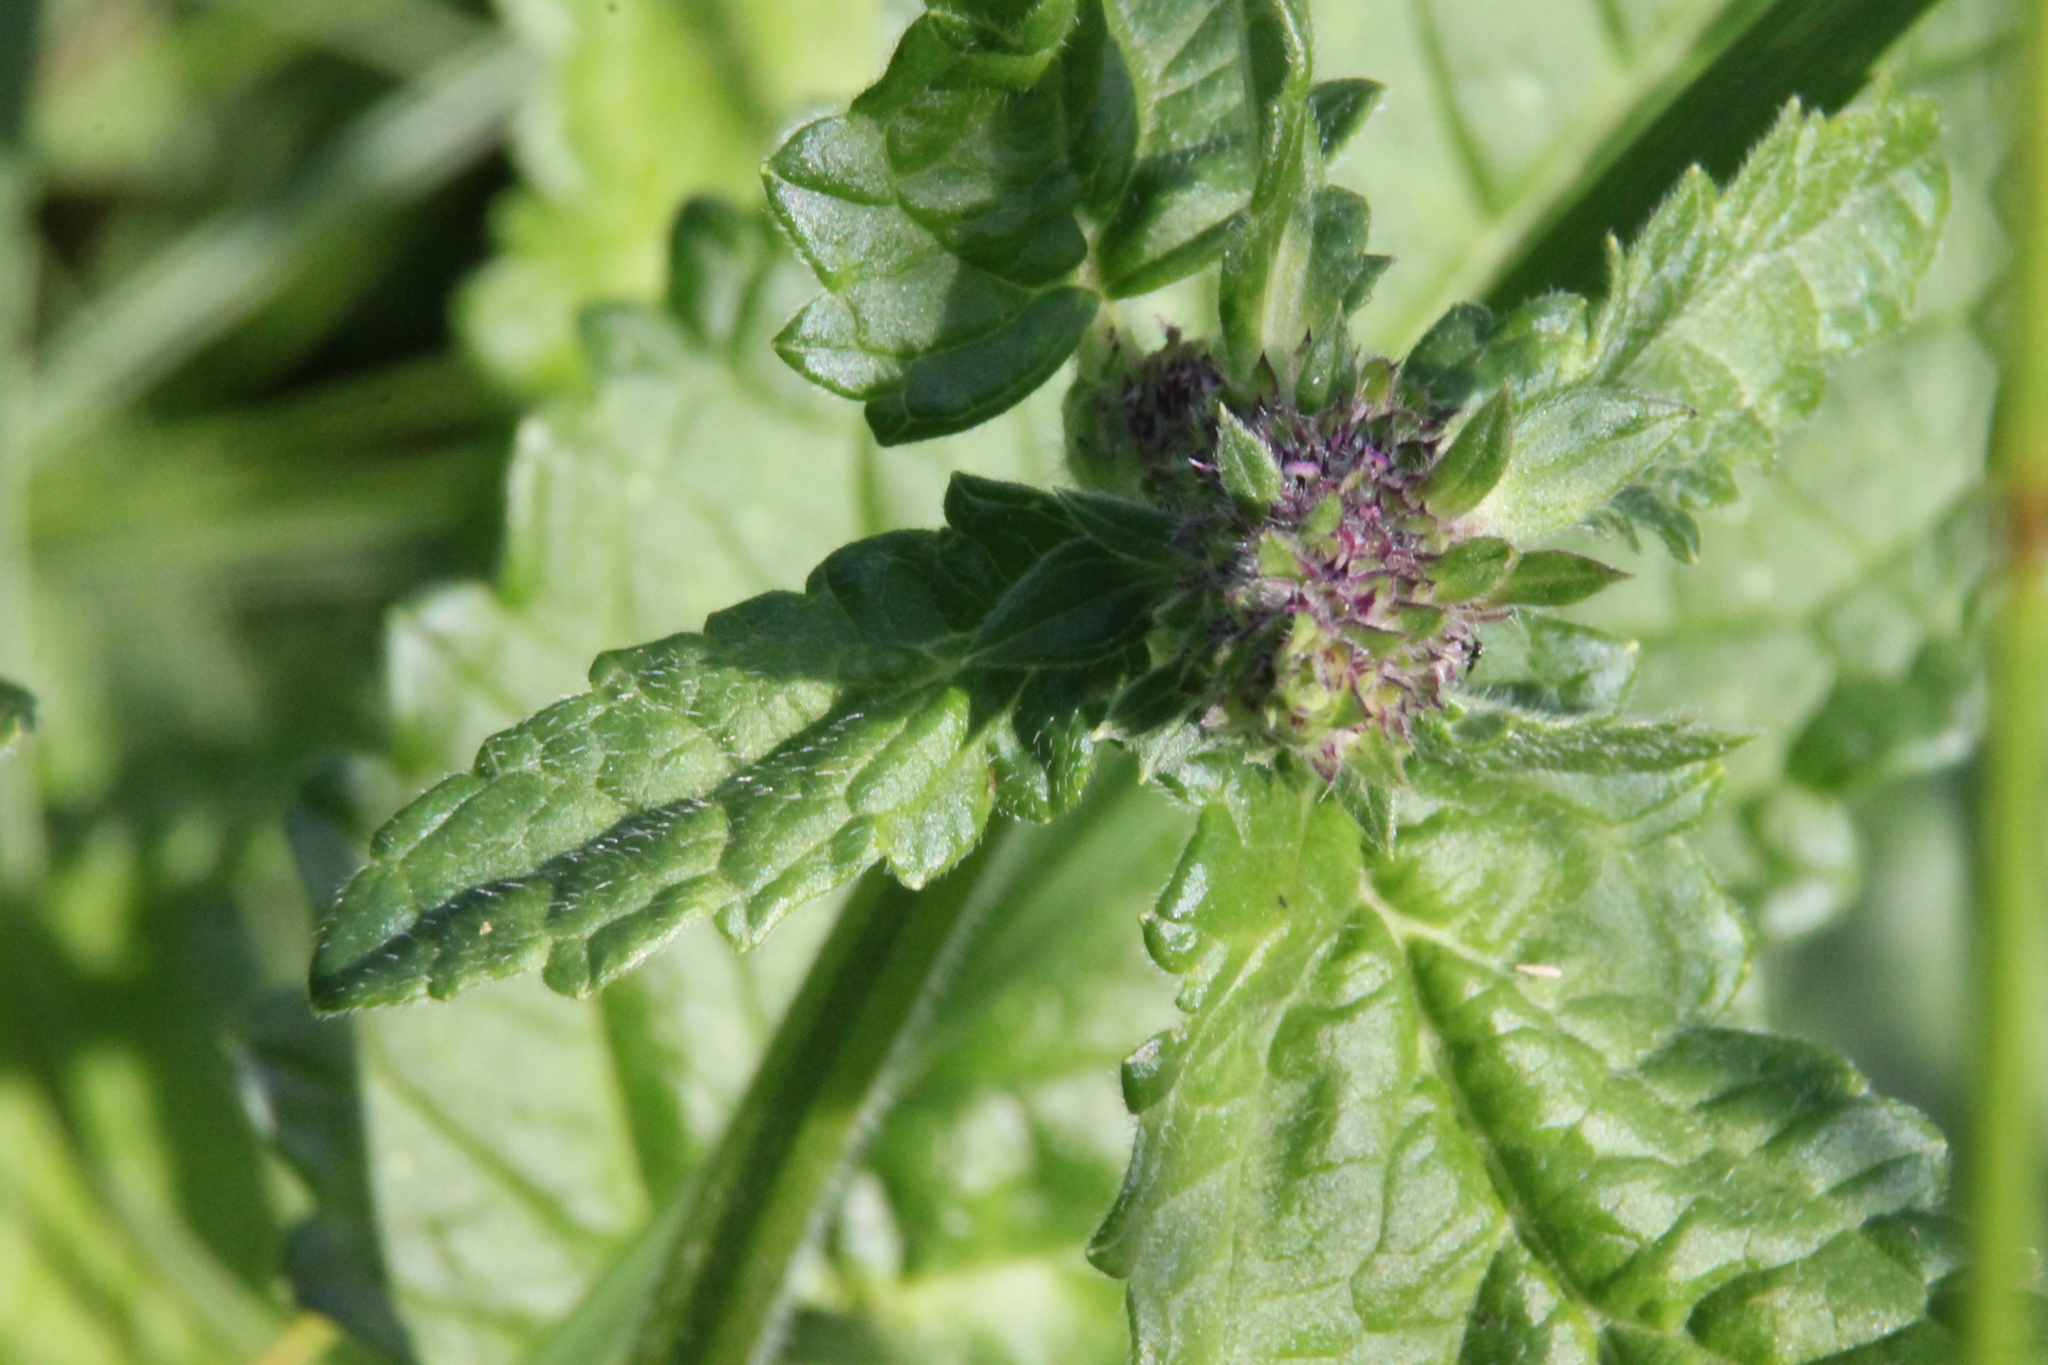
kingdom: Plantae
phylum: Tracheophyta
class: Magnoliopsida
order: Lamiales
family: Lamiaceae
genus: Betonica
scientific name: Betonica officinalis
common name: Bishop's-wort
